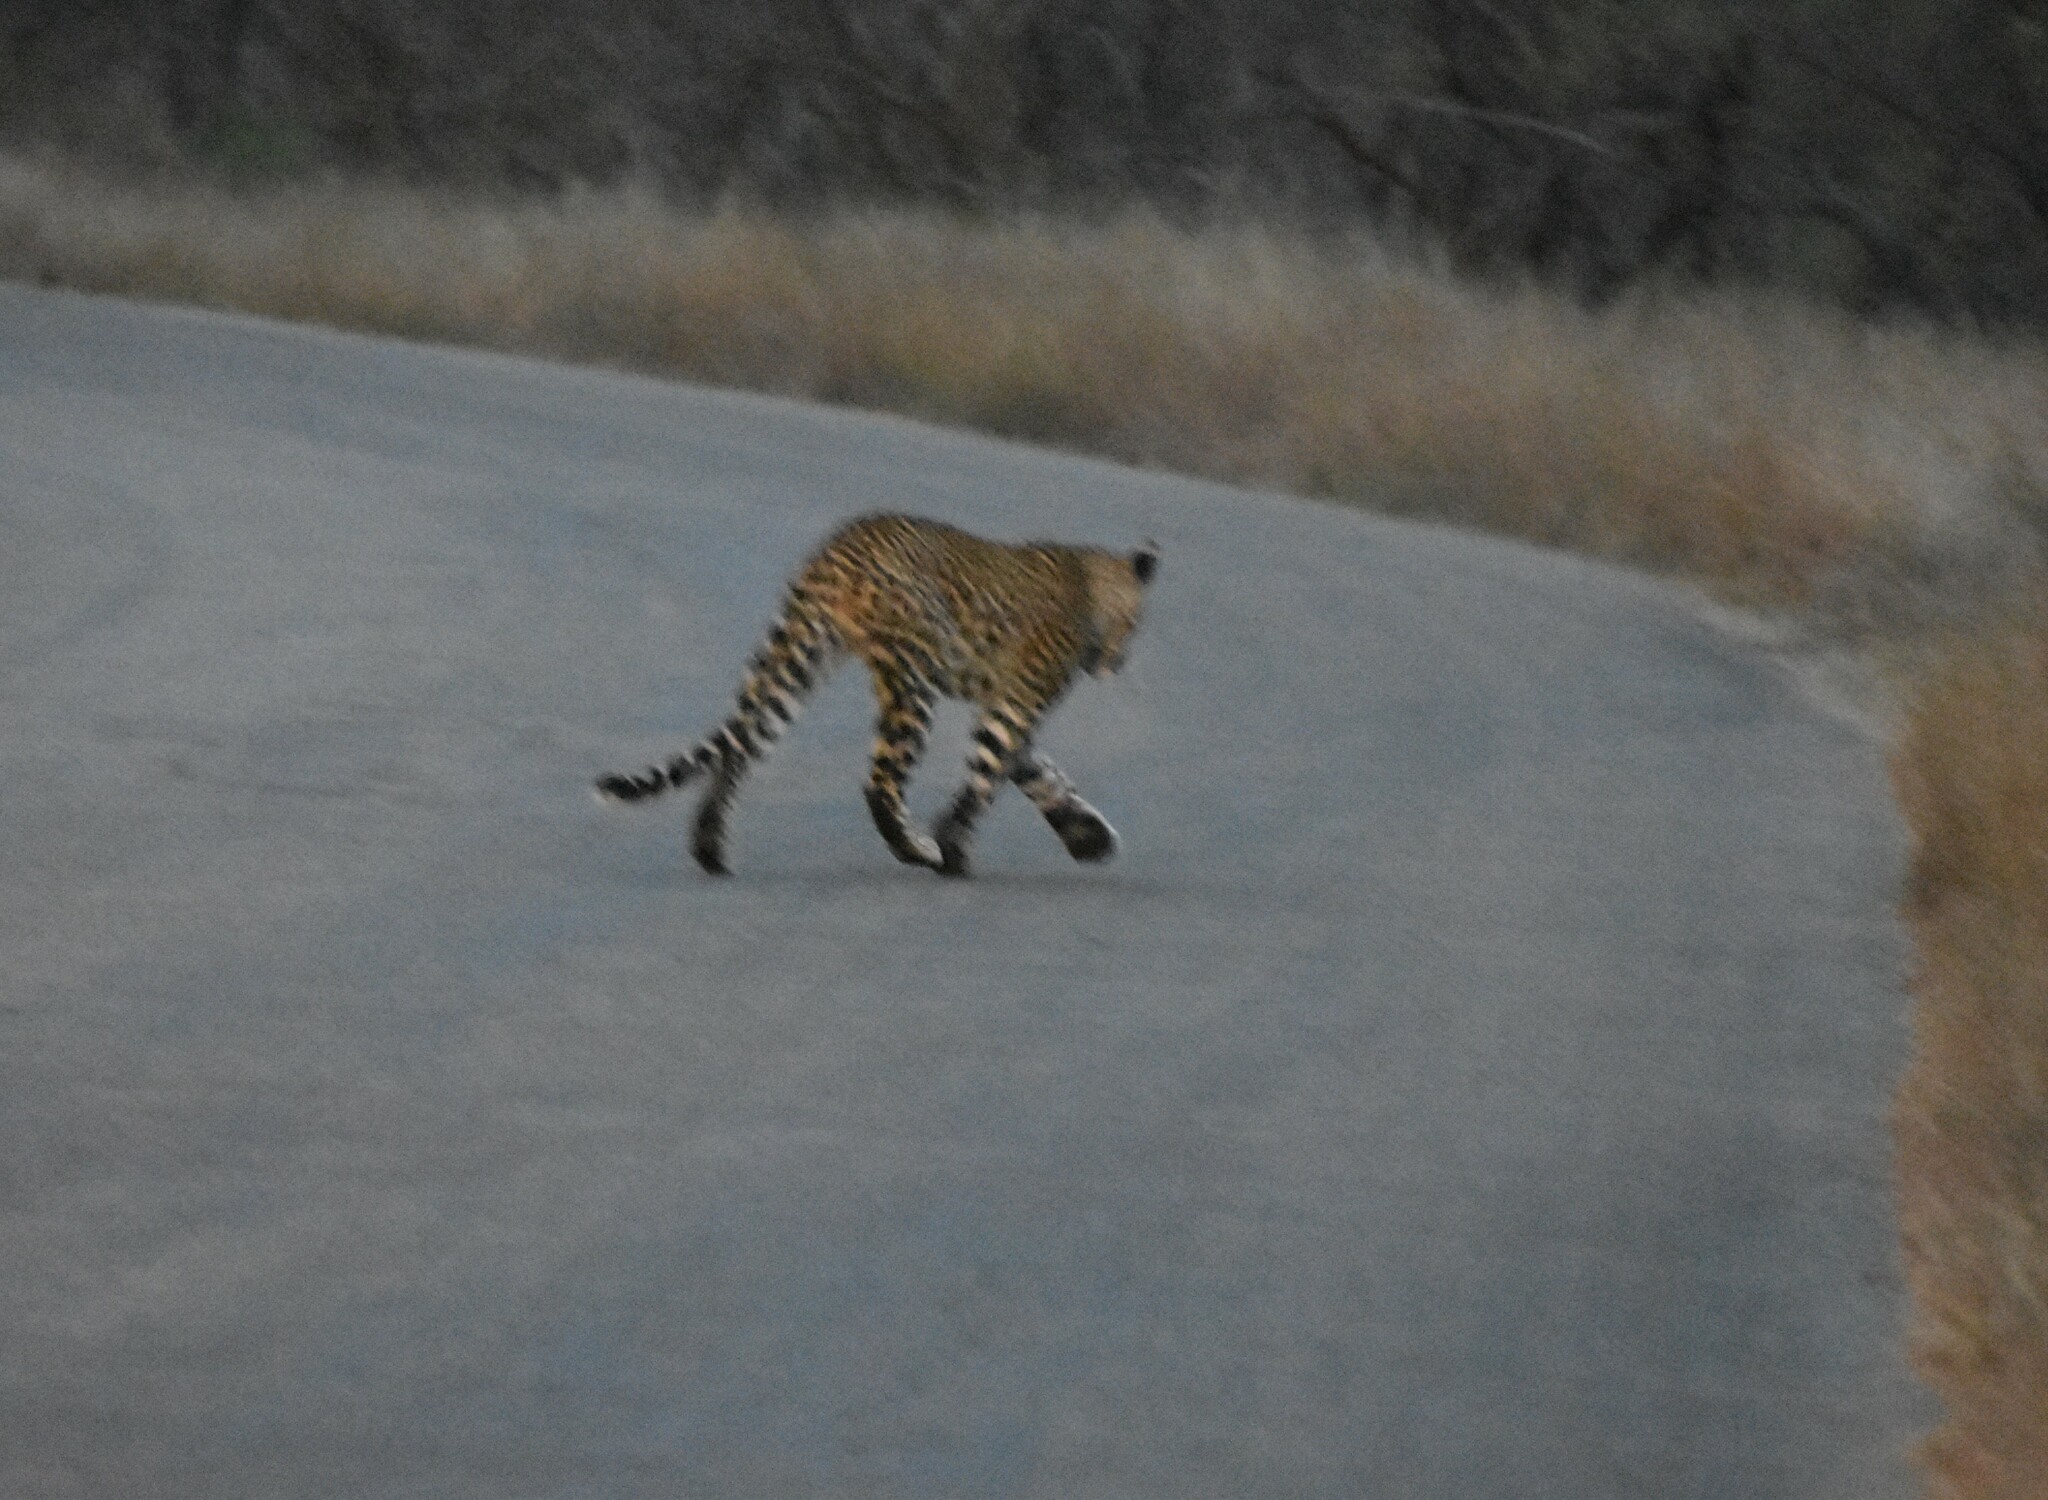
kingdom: Animalia
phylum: Chordata
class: Mammalia
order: Carnivora
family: Felidae
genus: Panthera
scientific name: Panthera pardus
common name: Leopard
